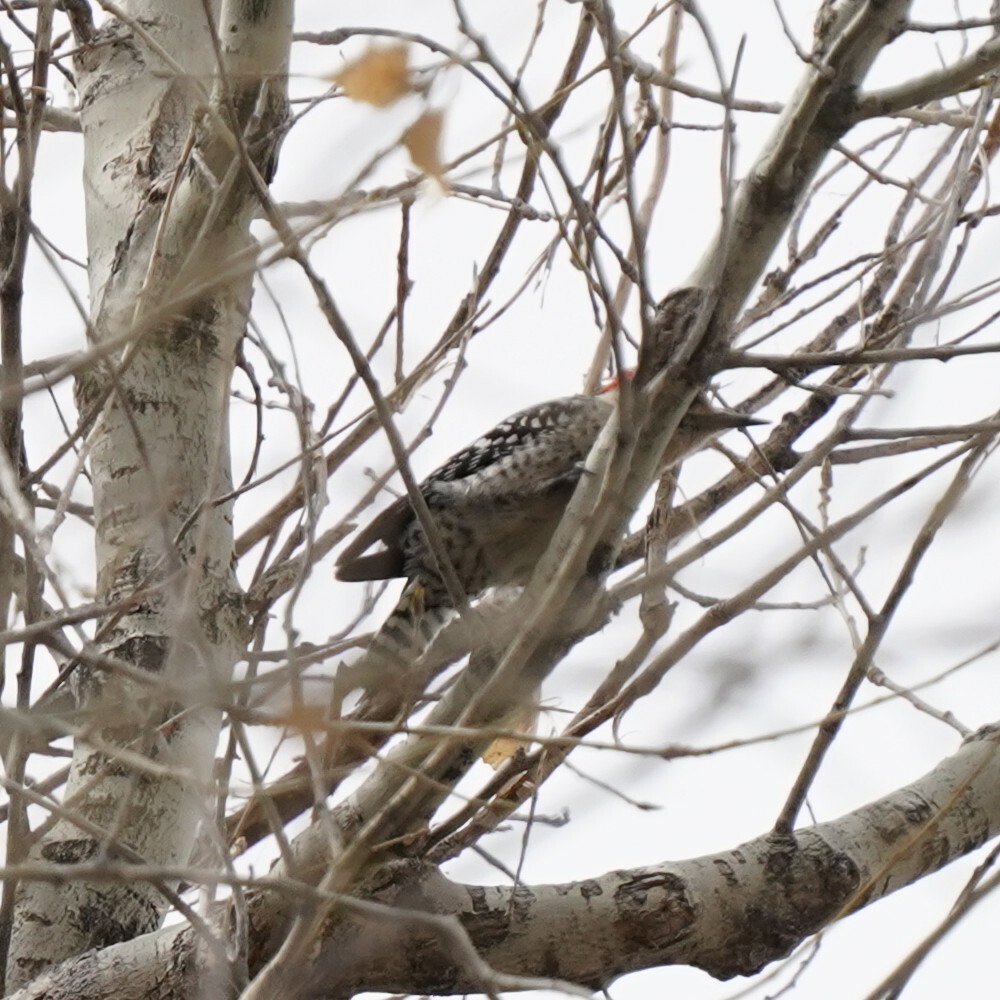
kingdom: Animalia
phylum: Chordata
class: Aves
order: Piciformes
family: Picidae
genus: Dryobates
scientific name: Dryobates scalaris
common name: Ladder-backed woodpecker
